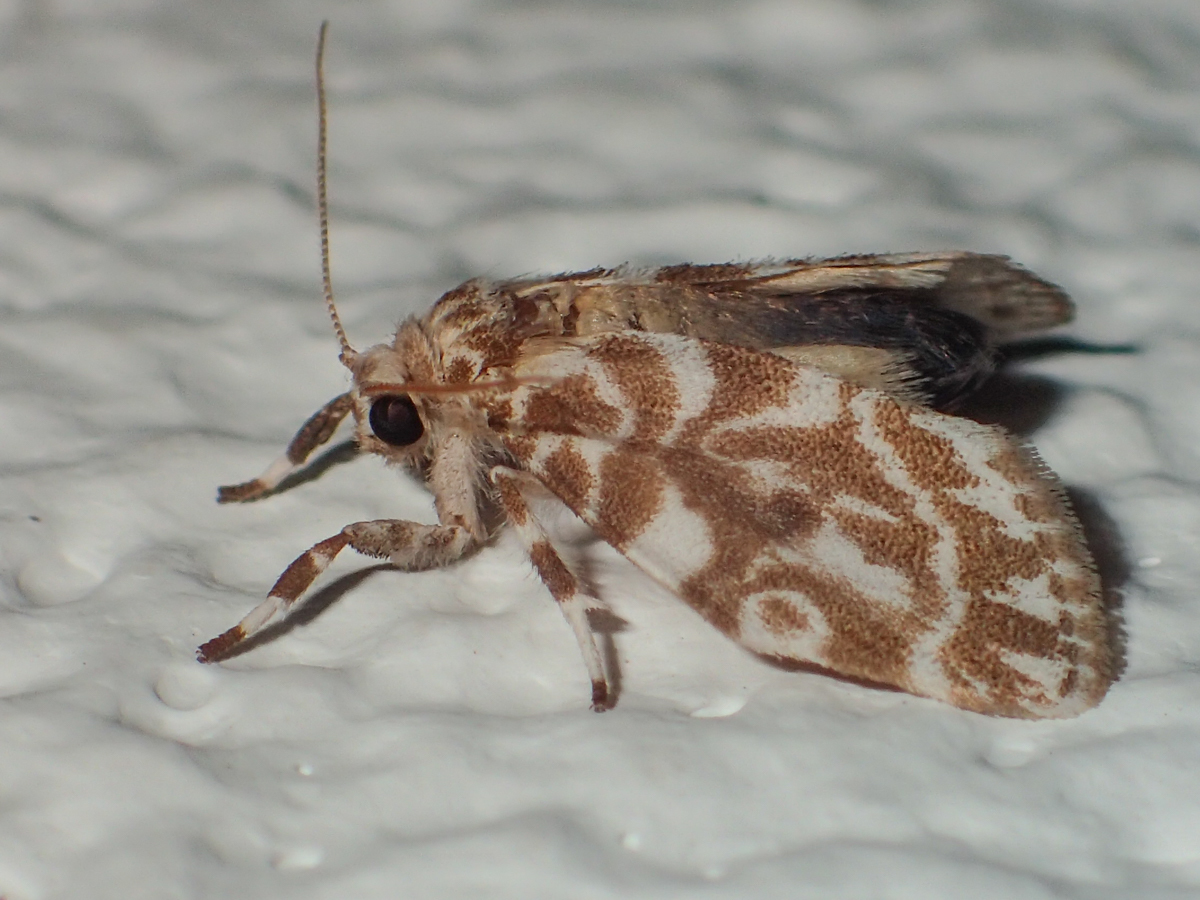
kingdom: Animalia
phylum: Arthropoda
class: Insecta
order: Lepidoptera
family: Erebidae
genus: Cabarda
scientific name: Cabarda sequens
